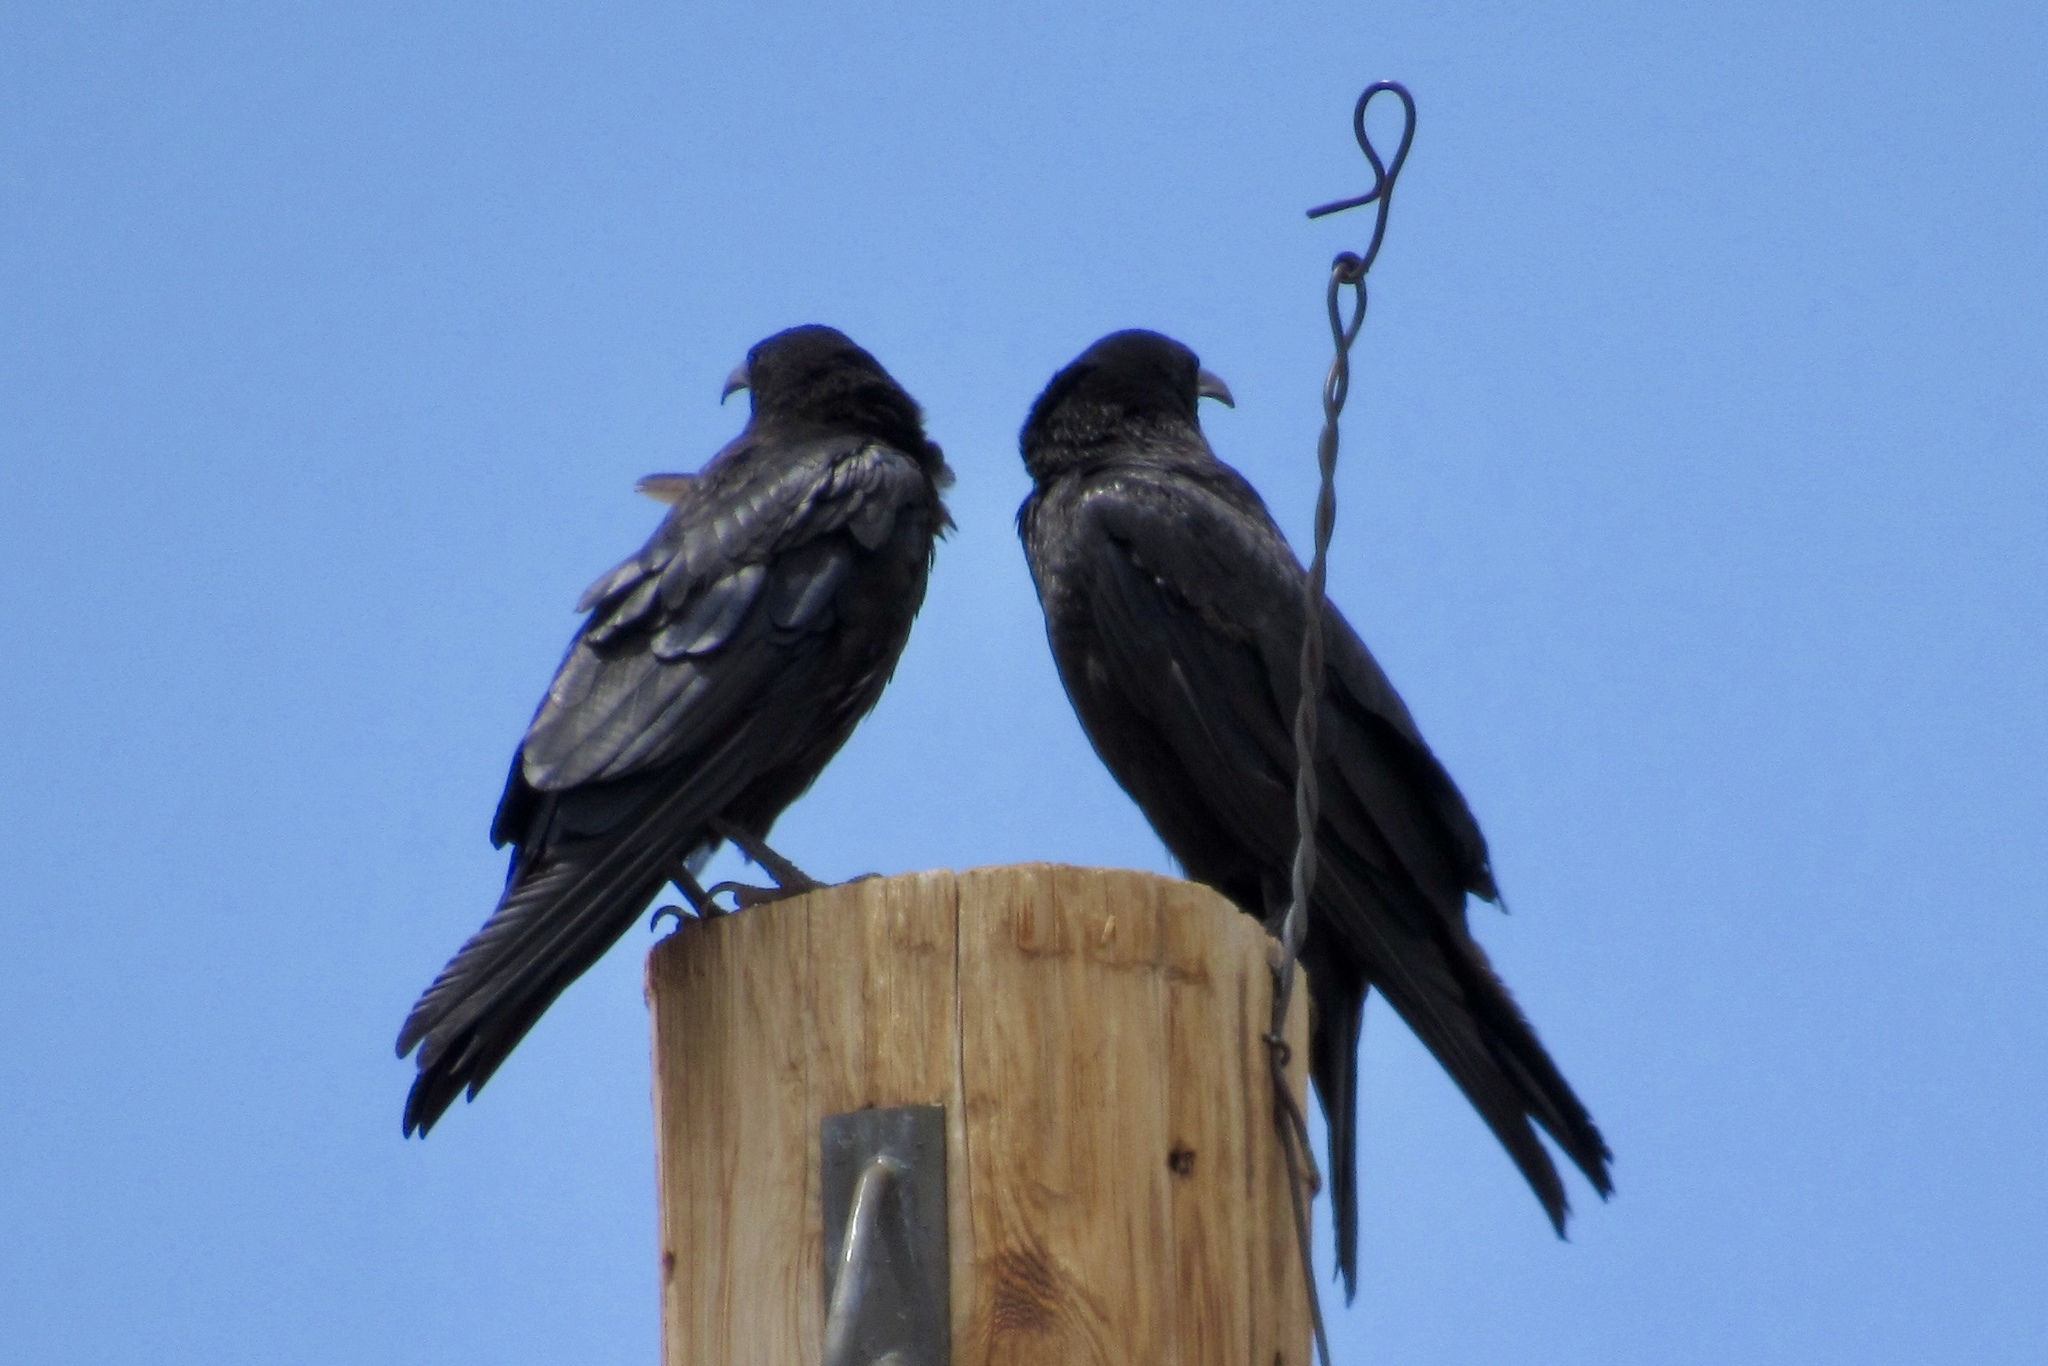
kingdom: Animalia
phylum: Chordata
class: Aves
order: Passeriformes
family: Corvidae
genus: Corvus
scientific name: Corvus corax
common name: Common raven
